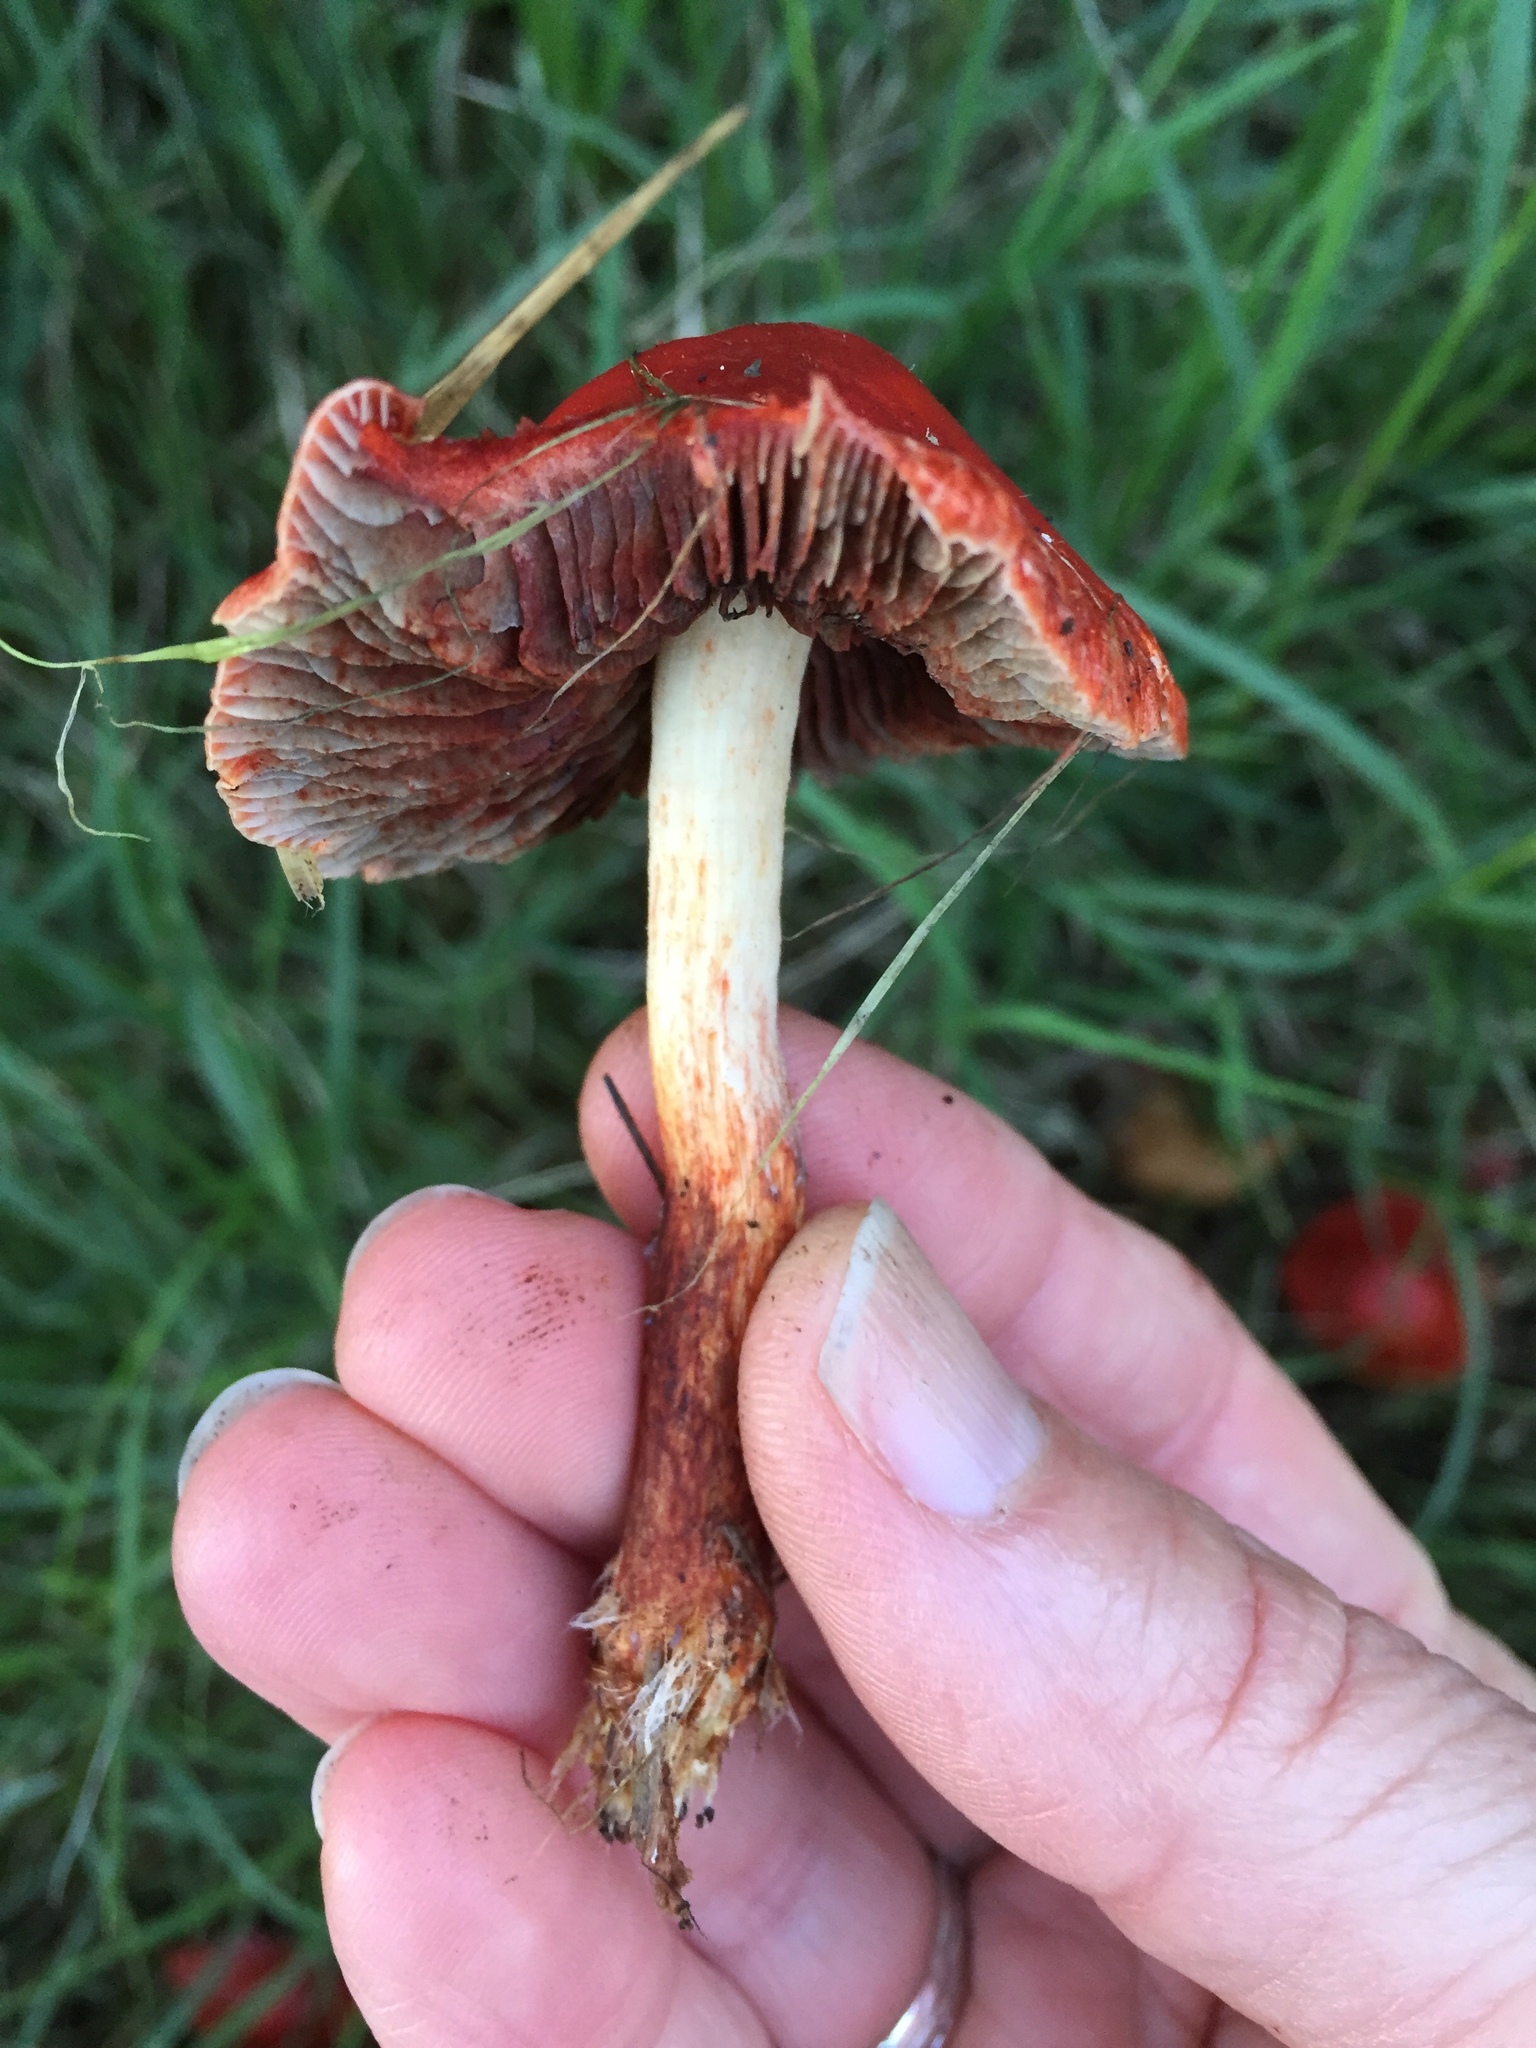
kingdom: Fungi
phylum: Basidiomycota
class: Agaricomycetes
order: Agaricales
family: Strophariaceae
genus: Leratiomyces
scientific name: Leratiomyces ceres
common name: Redlead roundhead
